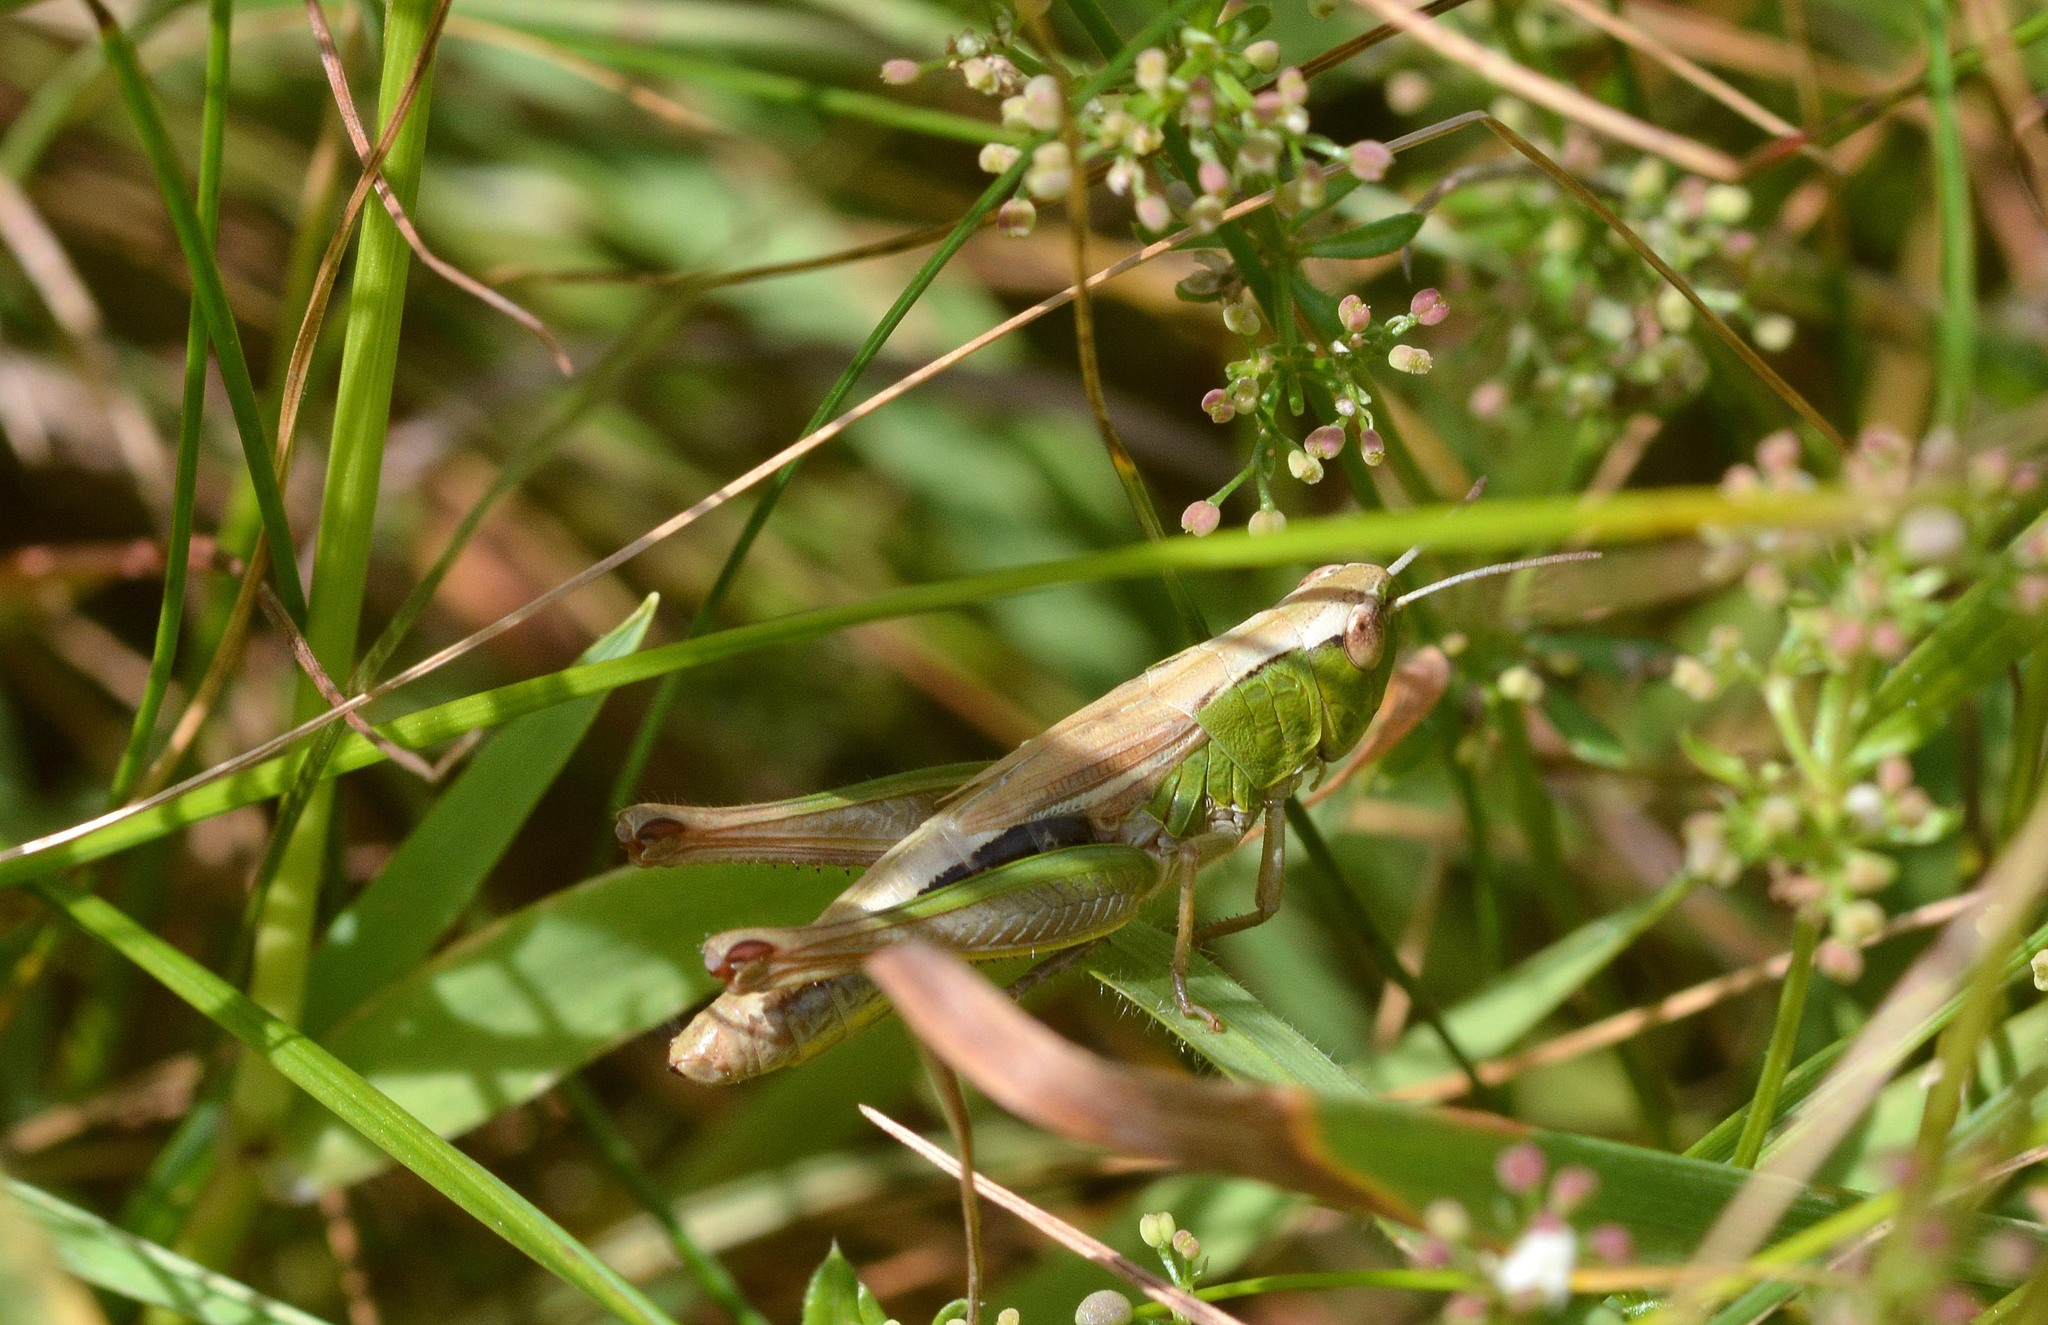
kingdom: Animalia
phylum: Arthropoda
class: Insecta
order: Orthoptera
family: Acrididae
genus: Pseudochorthippus
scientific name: Pseudochorthippus parallelus
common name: Meadow grasshopper
